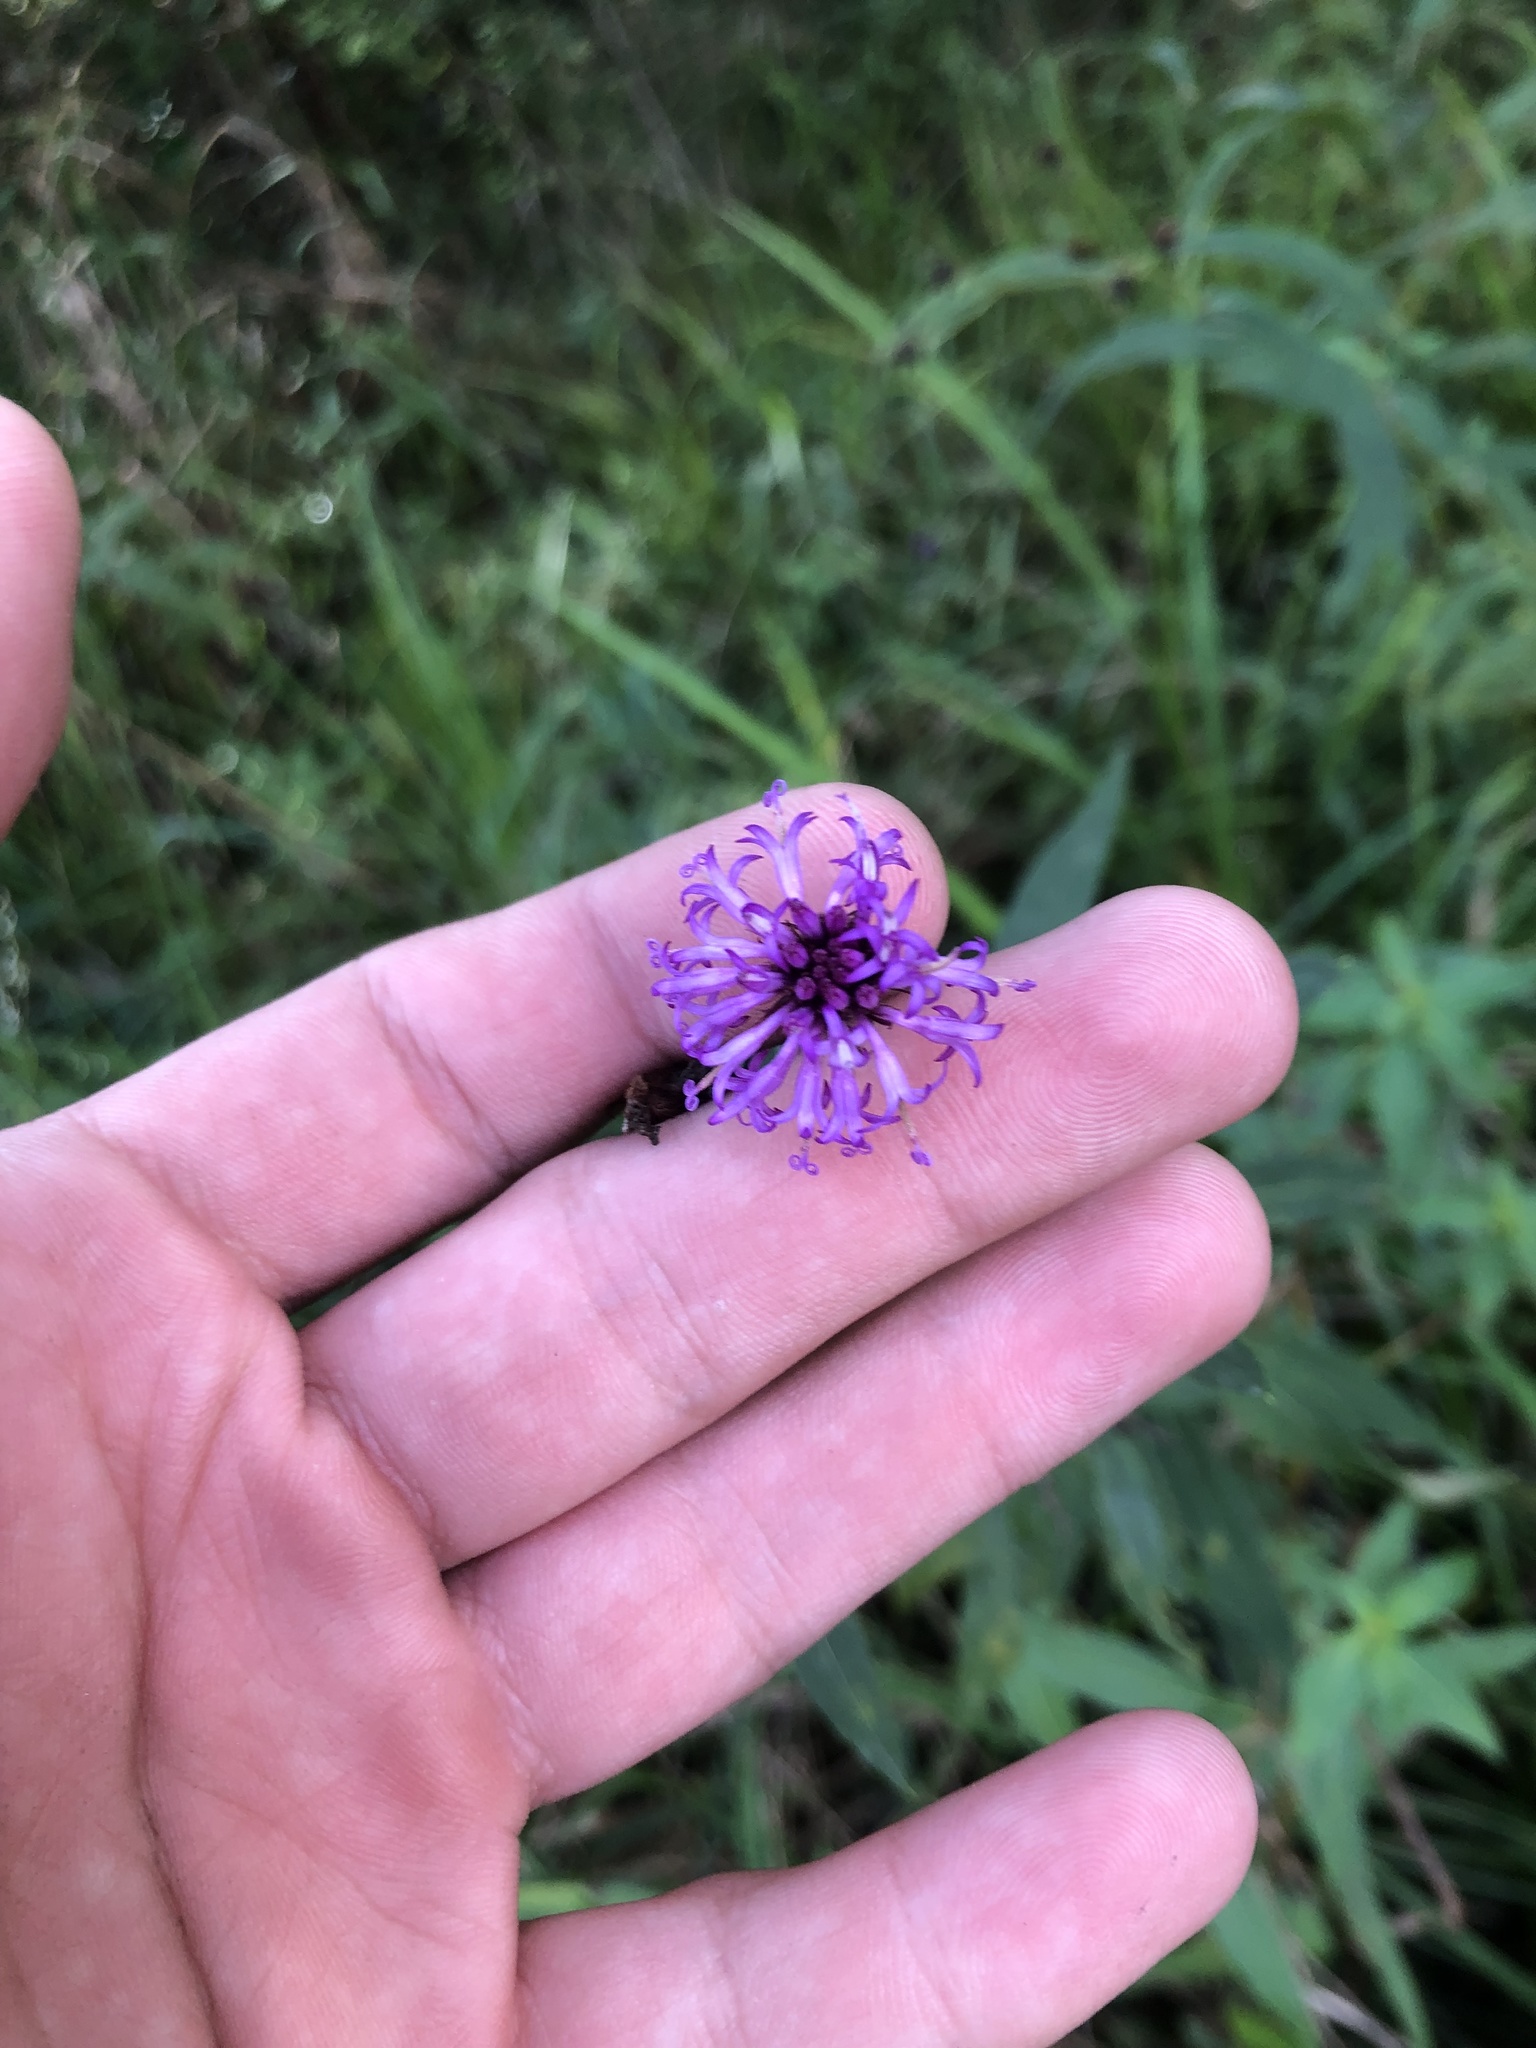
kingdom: Plantae
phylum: Tracheophyta
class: Magnoliopsida
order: Asterales
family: Asteraceae
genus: Vernonia
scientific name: Vernonia gigantea
